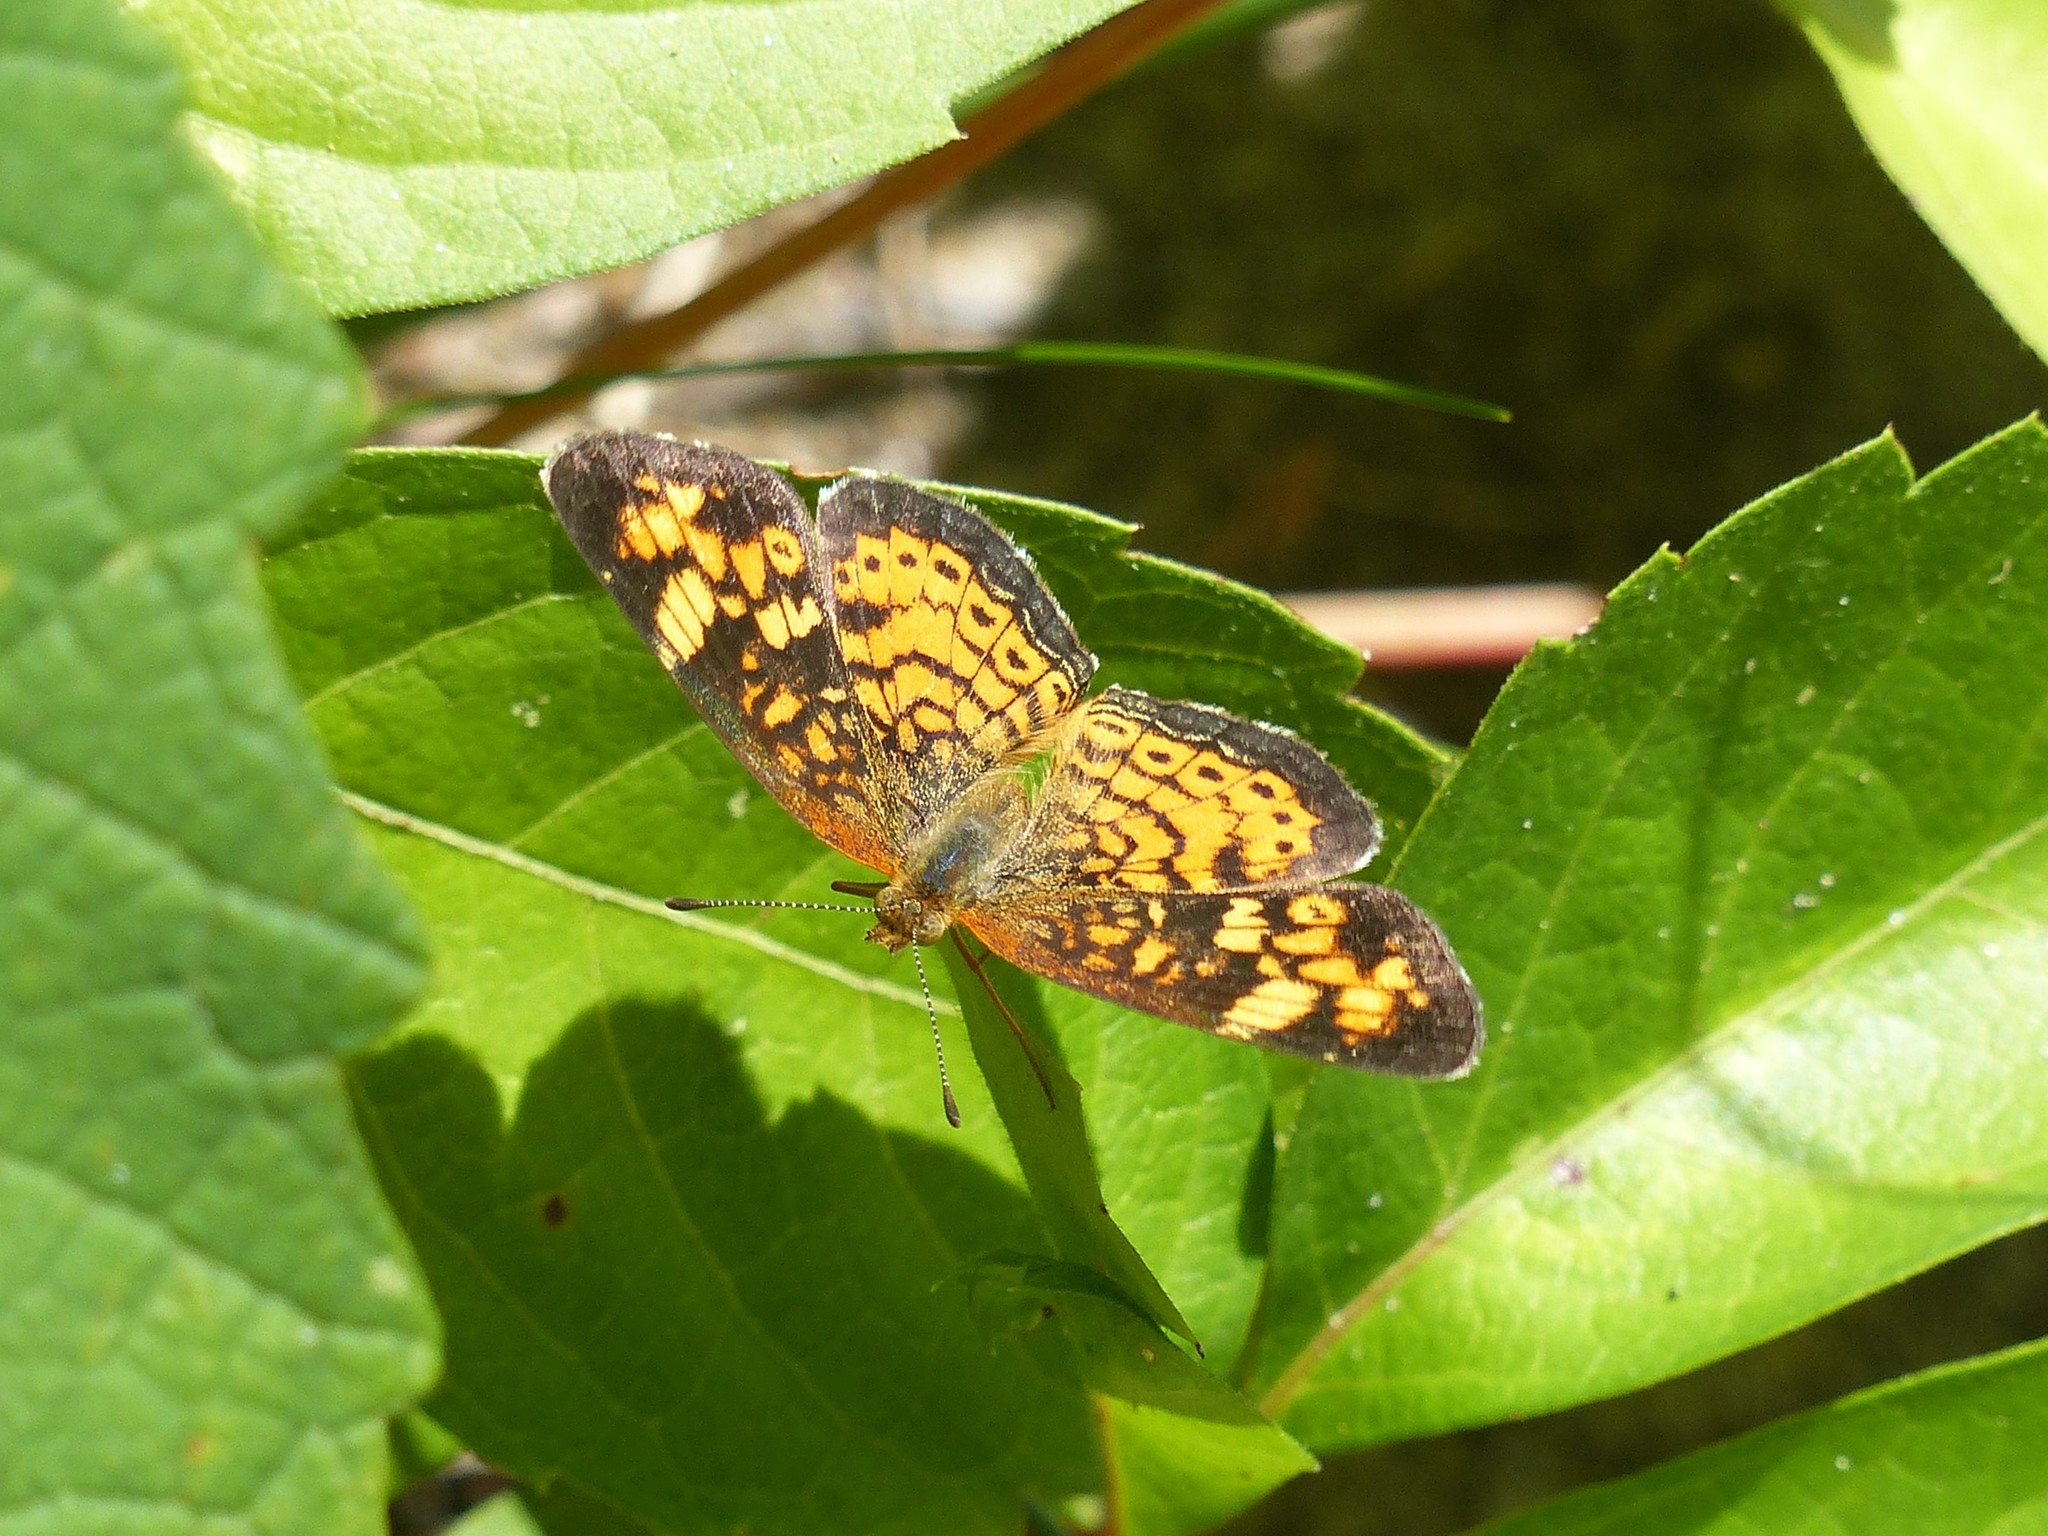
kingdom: Animalia
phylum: Arthropoda
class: Insecta
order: Lepidoptera
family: Nymphalidae
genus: Phyciodes
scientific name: Phyciodes tharos
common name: Pearl crescent
